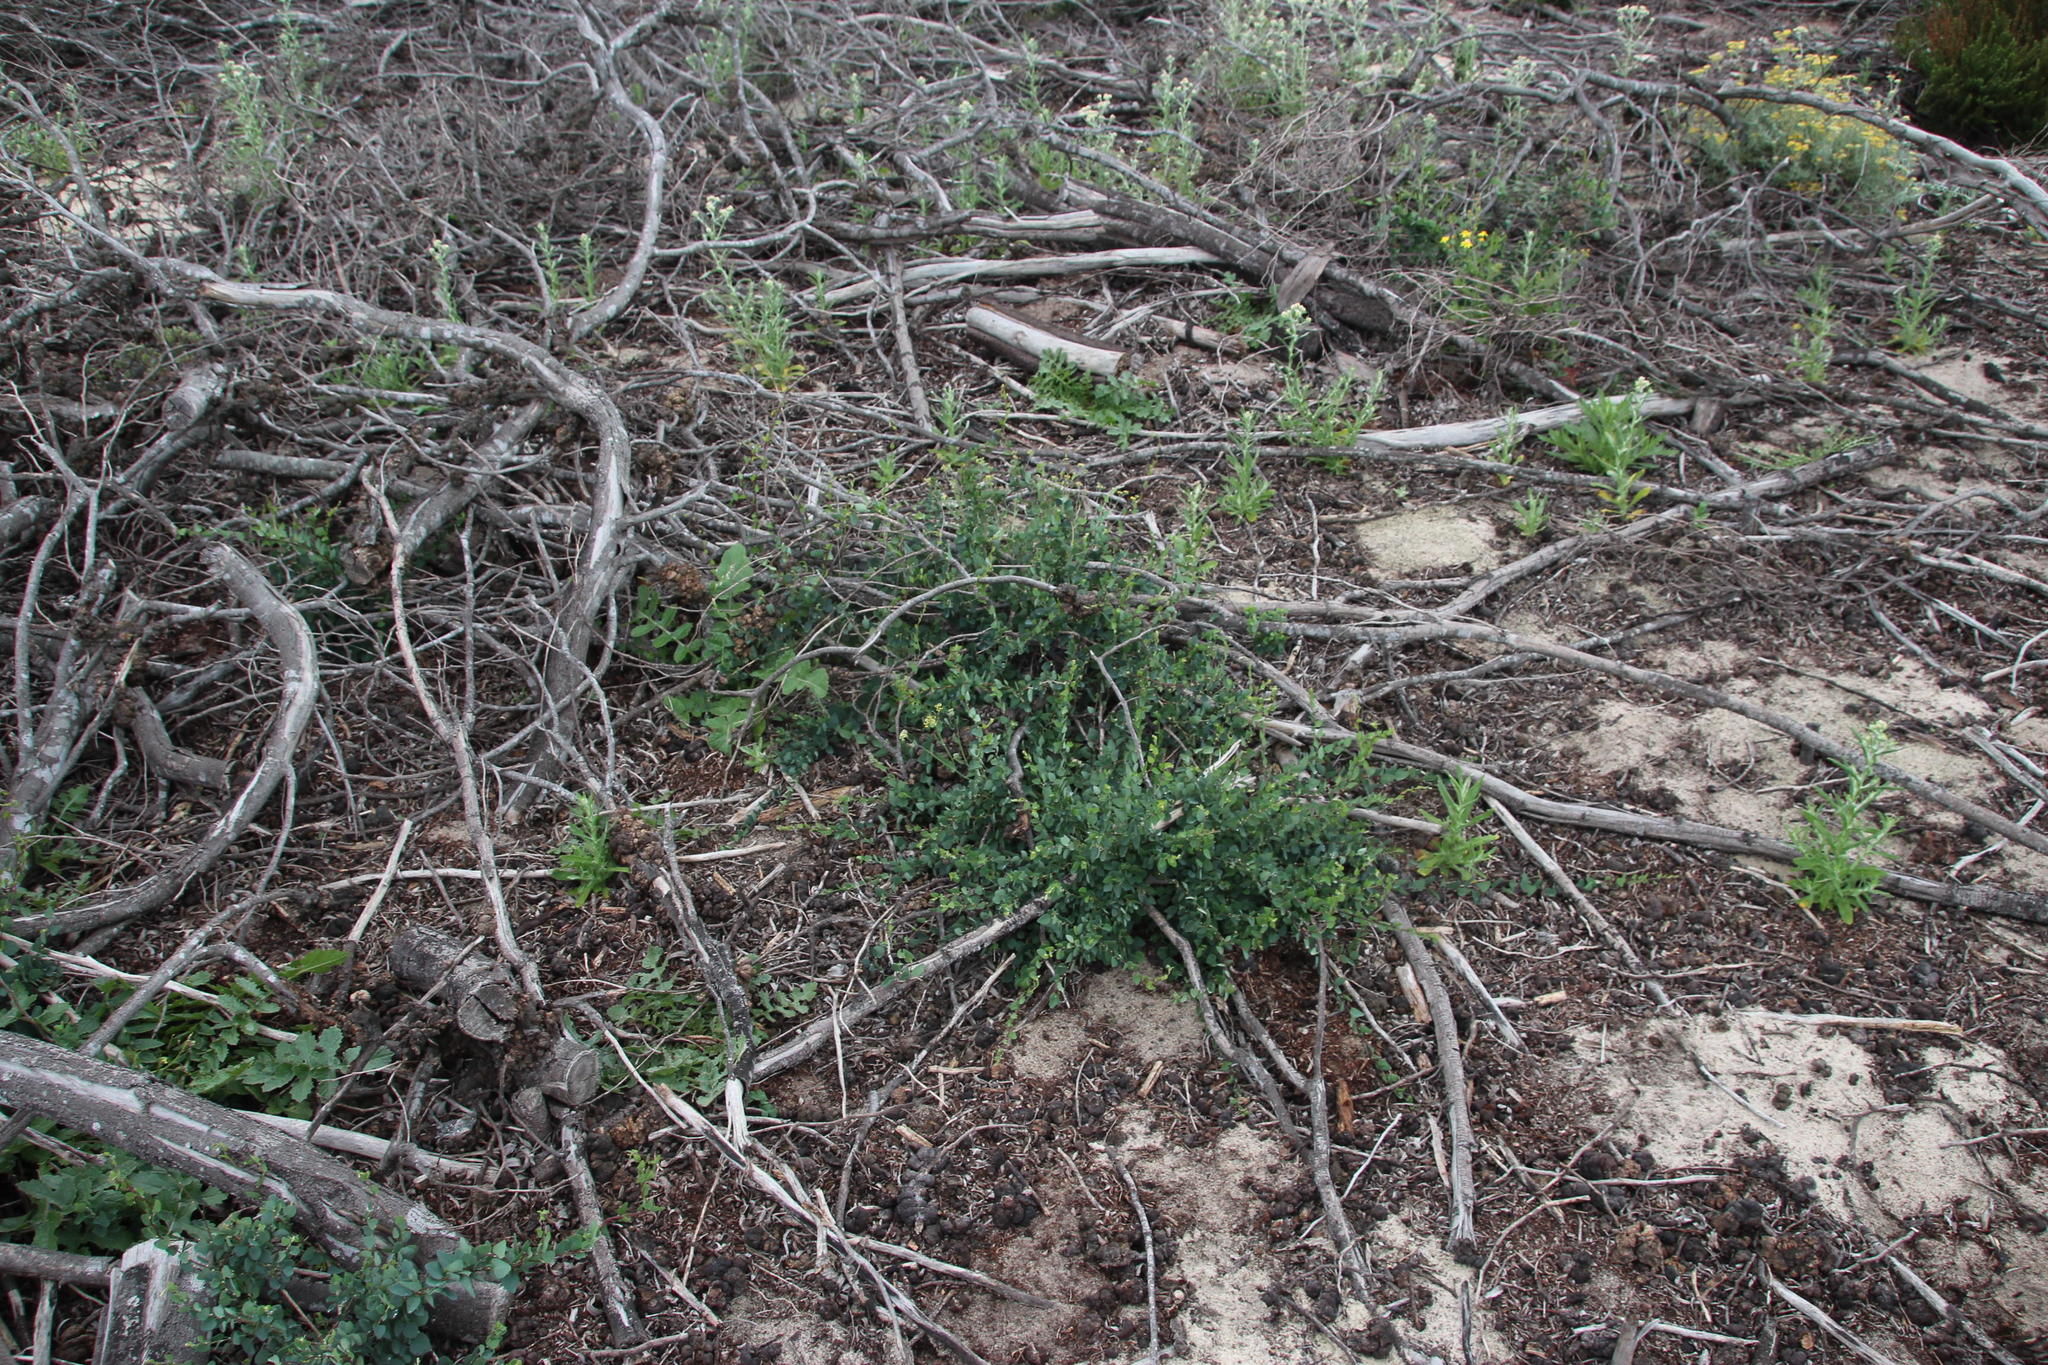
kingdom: Plantae
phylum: Tracheophyta
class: Magnoliopsida
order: Ranunculales
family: Menispermaceae
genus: Cissampelos
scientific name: Cissampelos capensis
